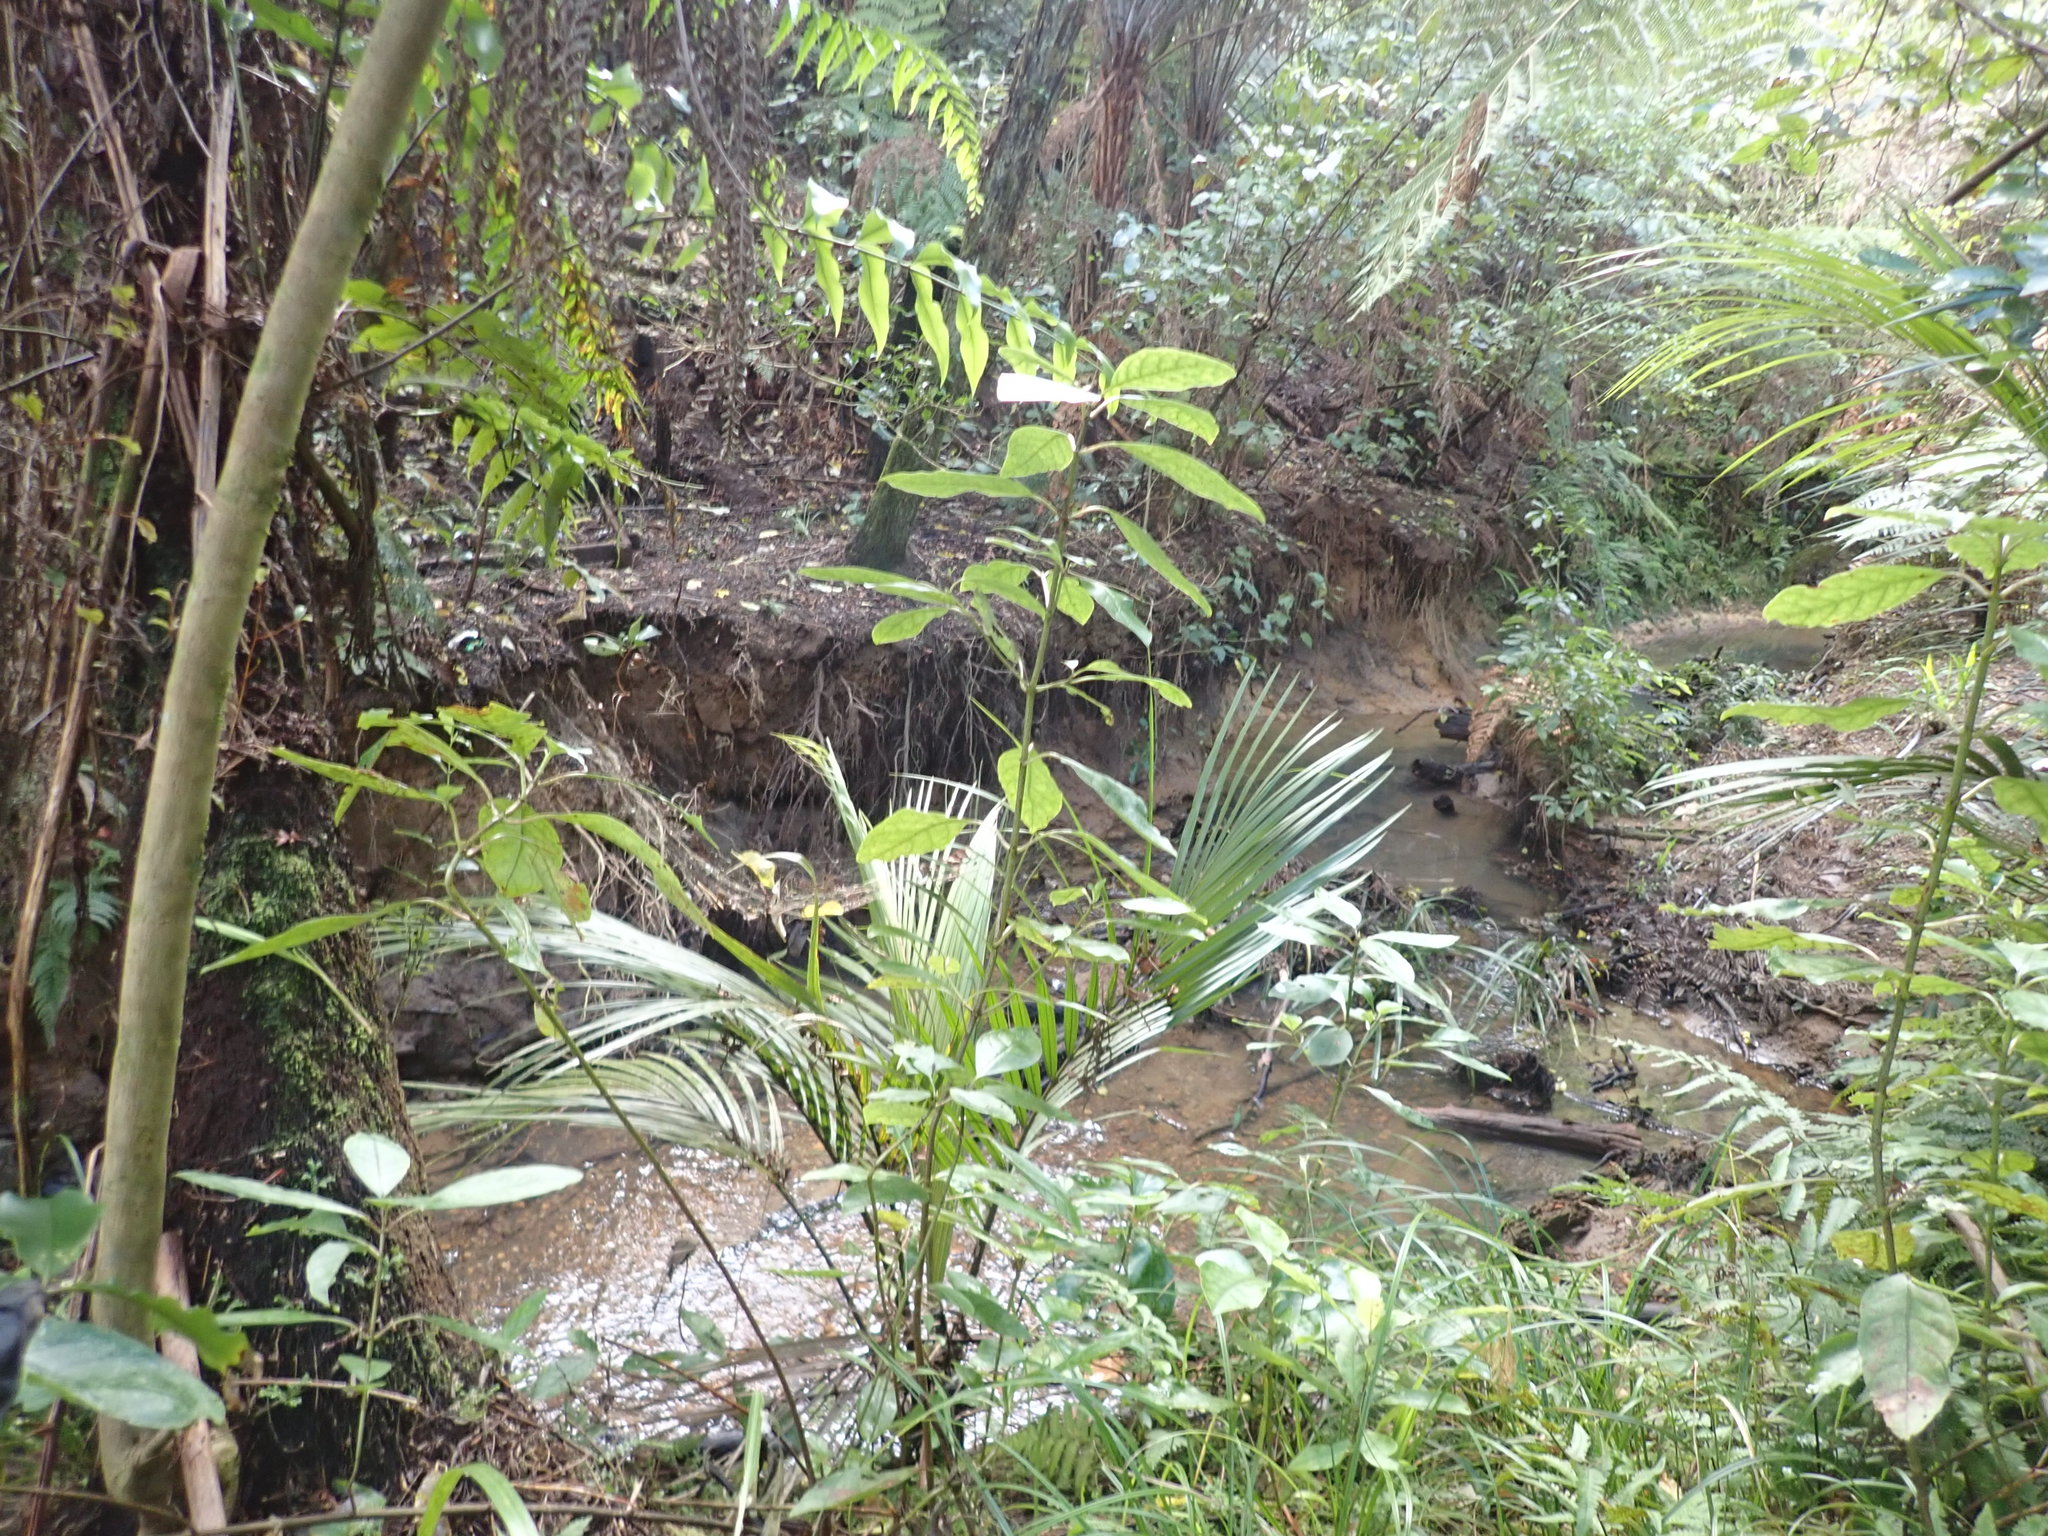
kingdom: Plantae
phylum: Tracheophyta
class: Liliopsida
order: Arecales
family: Arecaceae
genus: Rhopalostylis
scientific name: Rhopalostylis sapida
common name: Feather-duster palm
